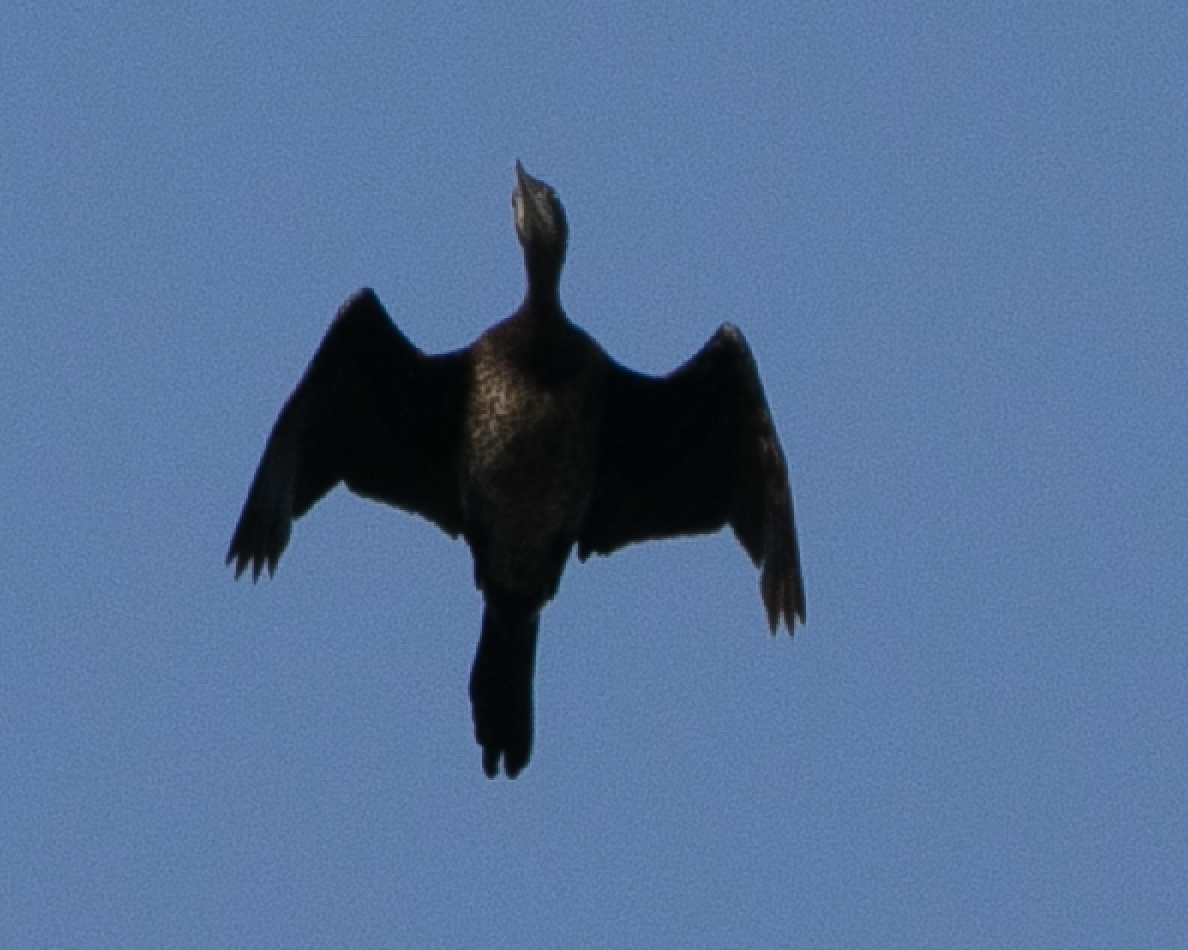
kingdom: Animalia
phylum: Chordata
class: Aves
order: Suliformes
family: Phalacrocoracidae
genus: Microcarbo
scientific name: Microcarbo pygmaeus
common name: Pygmy cormorant
